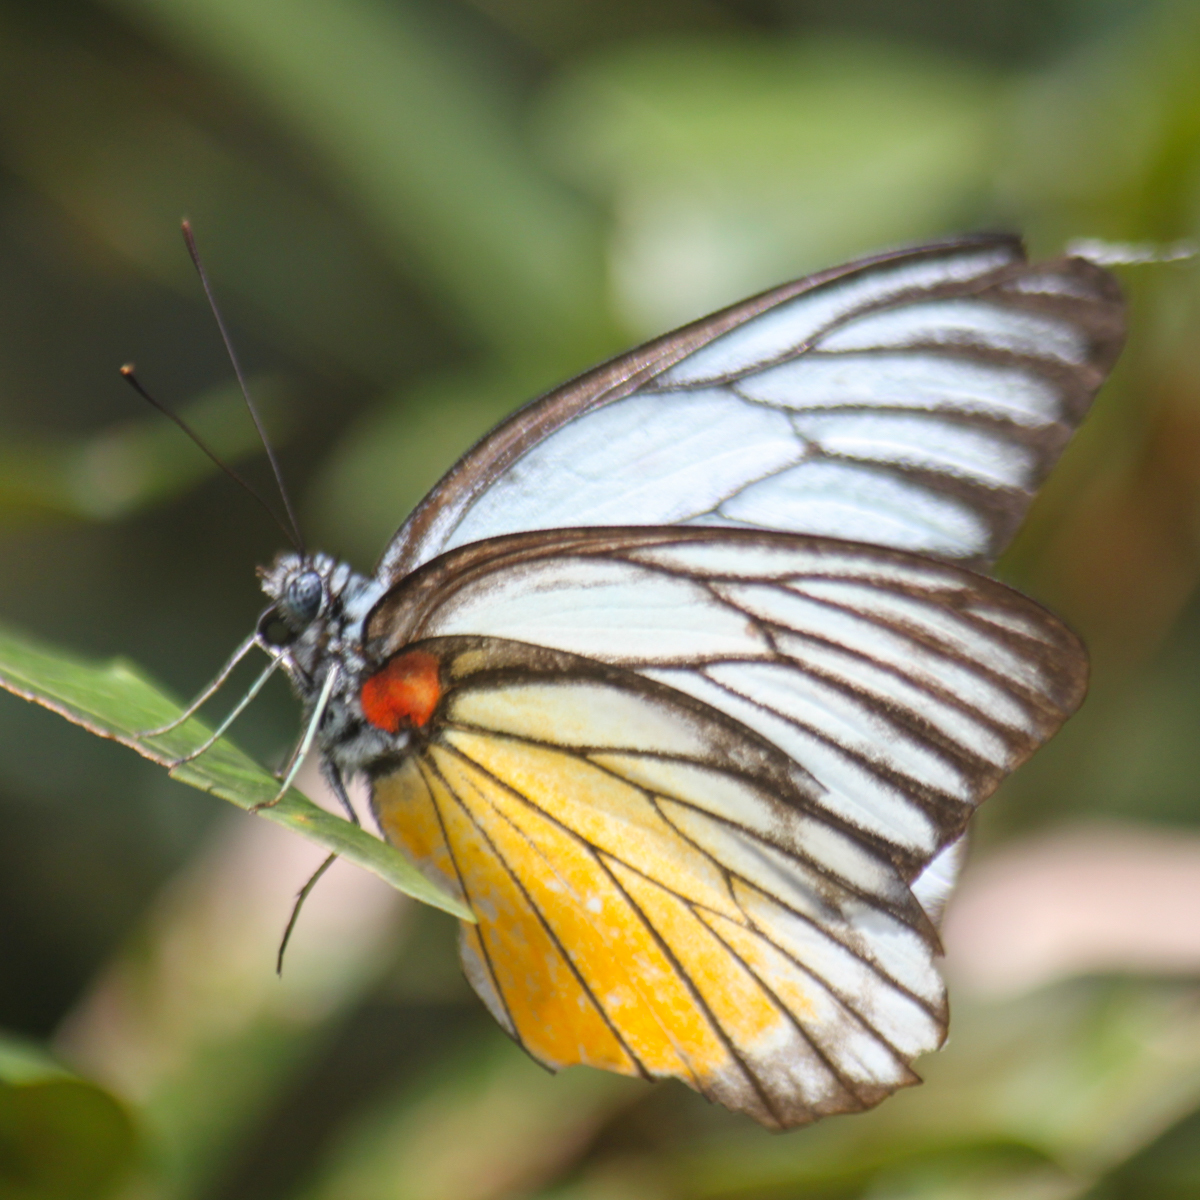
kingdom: Animalia
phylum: Arthropoda
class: Insecta
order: Lepidoptera
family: Pieridae
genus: Prioneris
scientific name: Prioneris
